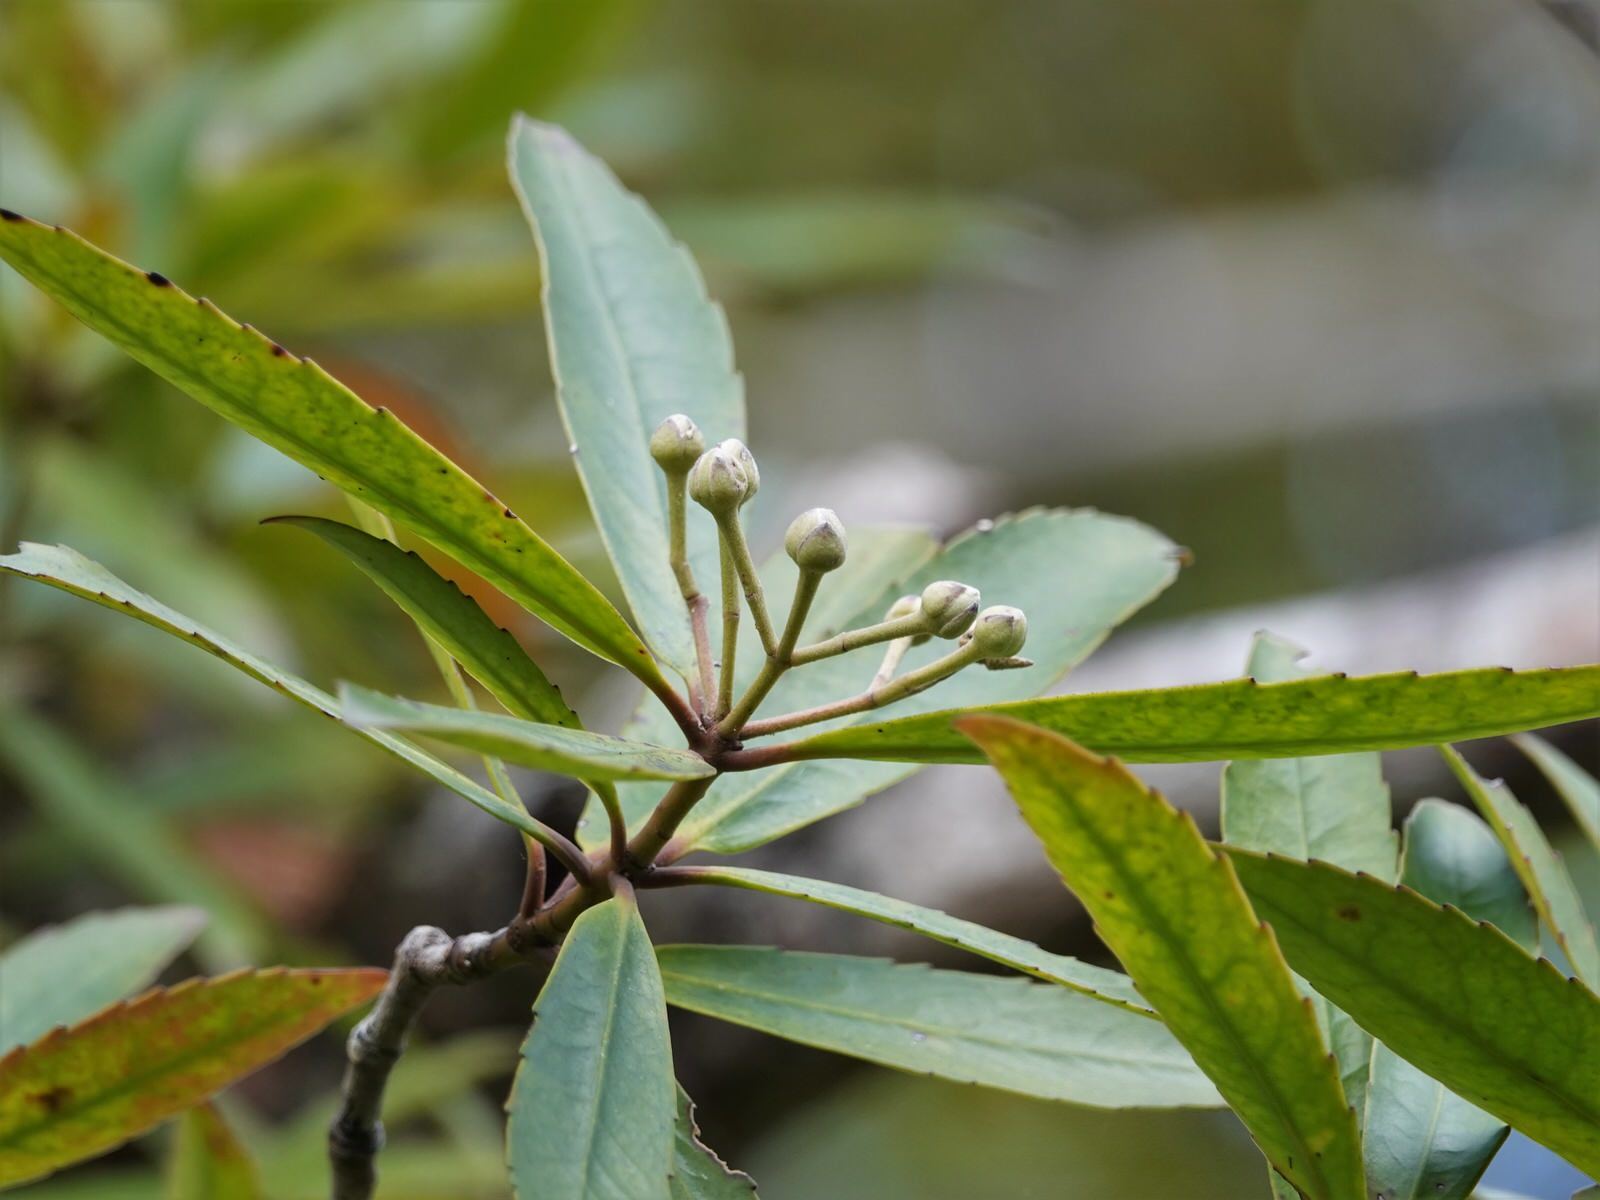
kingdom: Plantae
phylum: Tracheophyta
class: Magnoliopsida
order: Crossosomatales
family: Ixerbaceae
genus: Ixerba
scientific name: Ixerba brexioides
